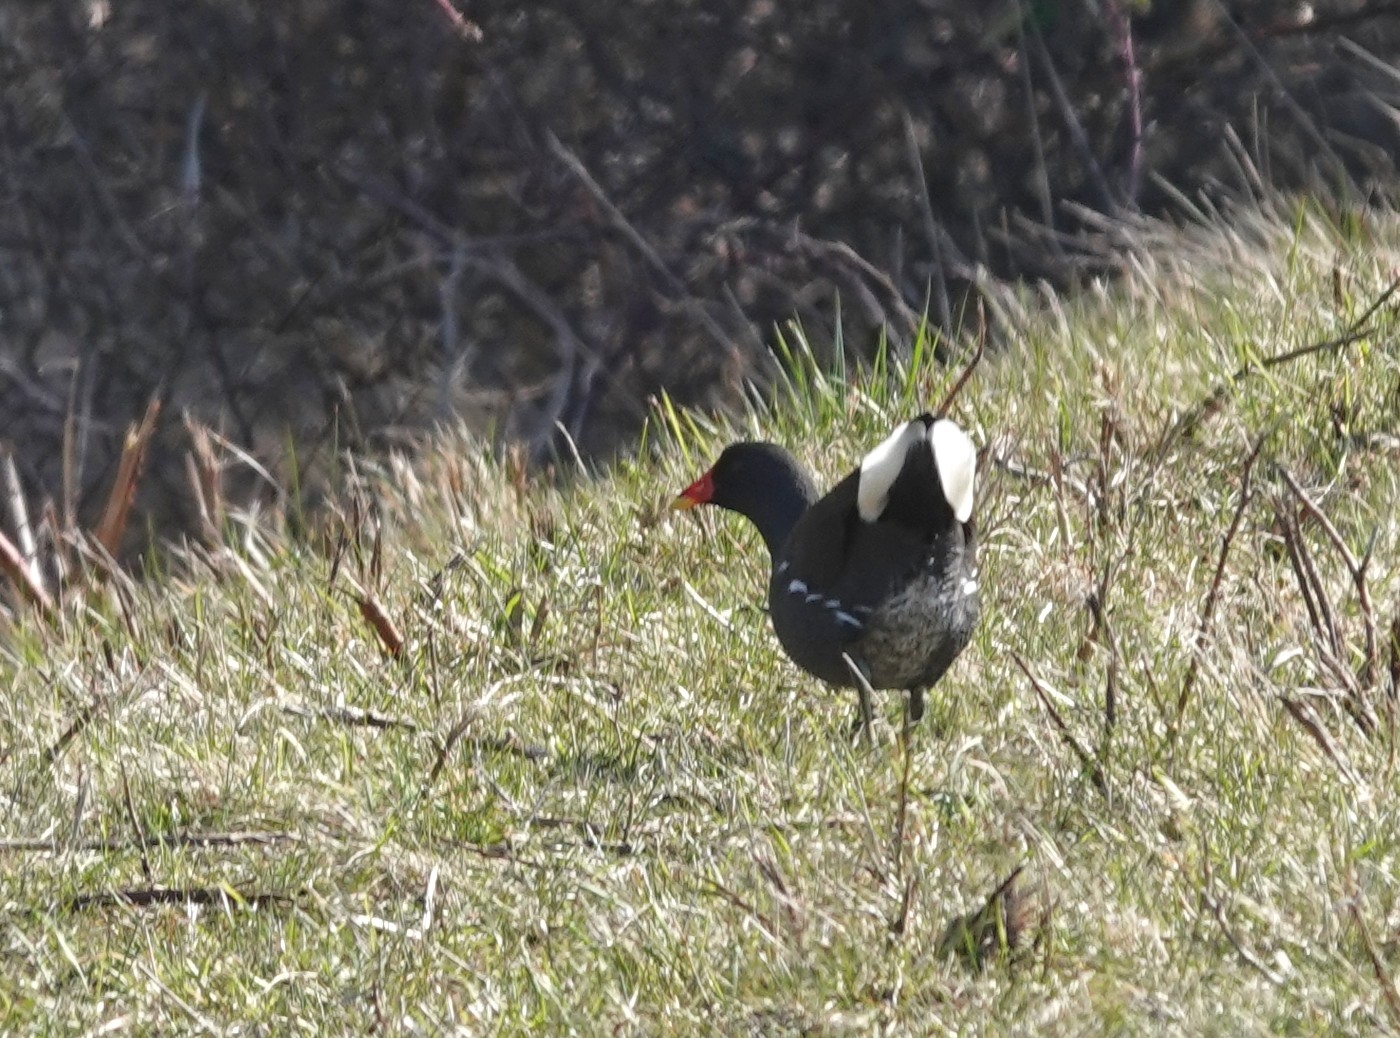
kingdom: Animalia
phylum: Chordata
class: Aves
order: Gruiformes
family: Rallidae
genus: Gallinula
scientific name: Gallinula chloropus
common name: Common moorhen
